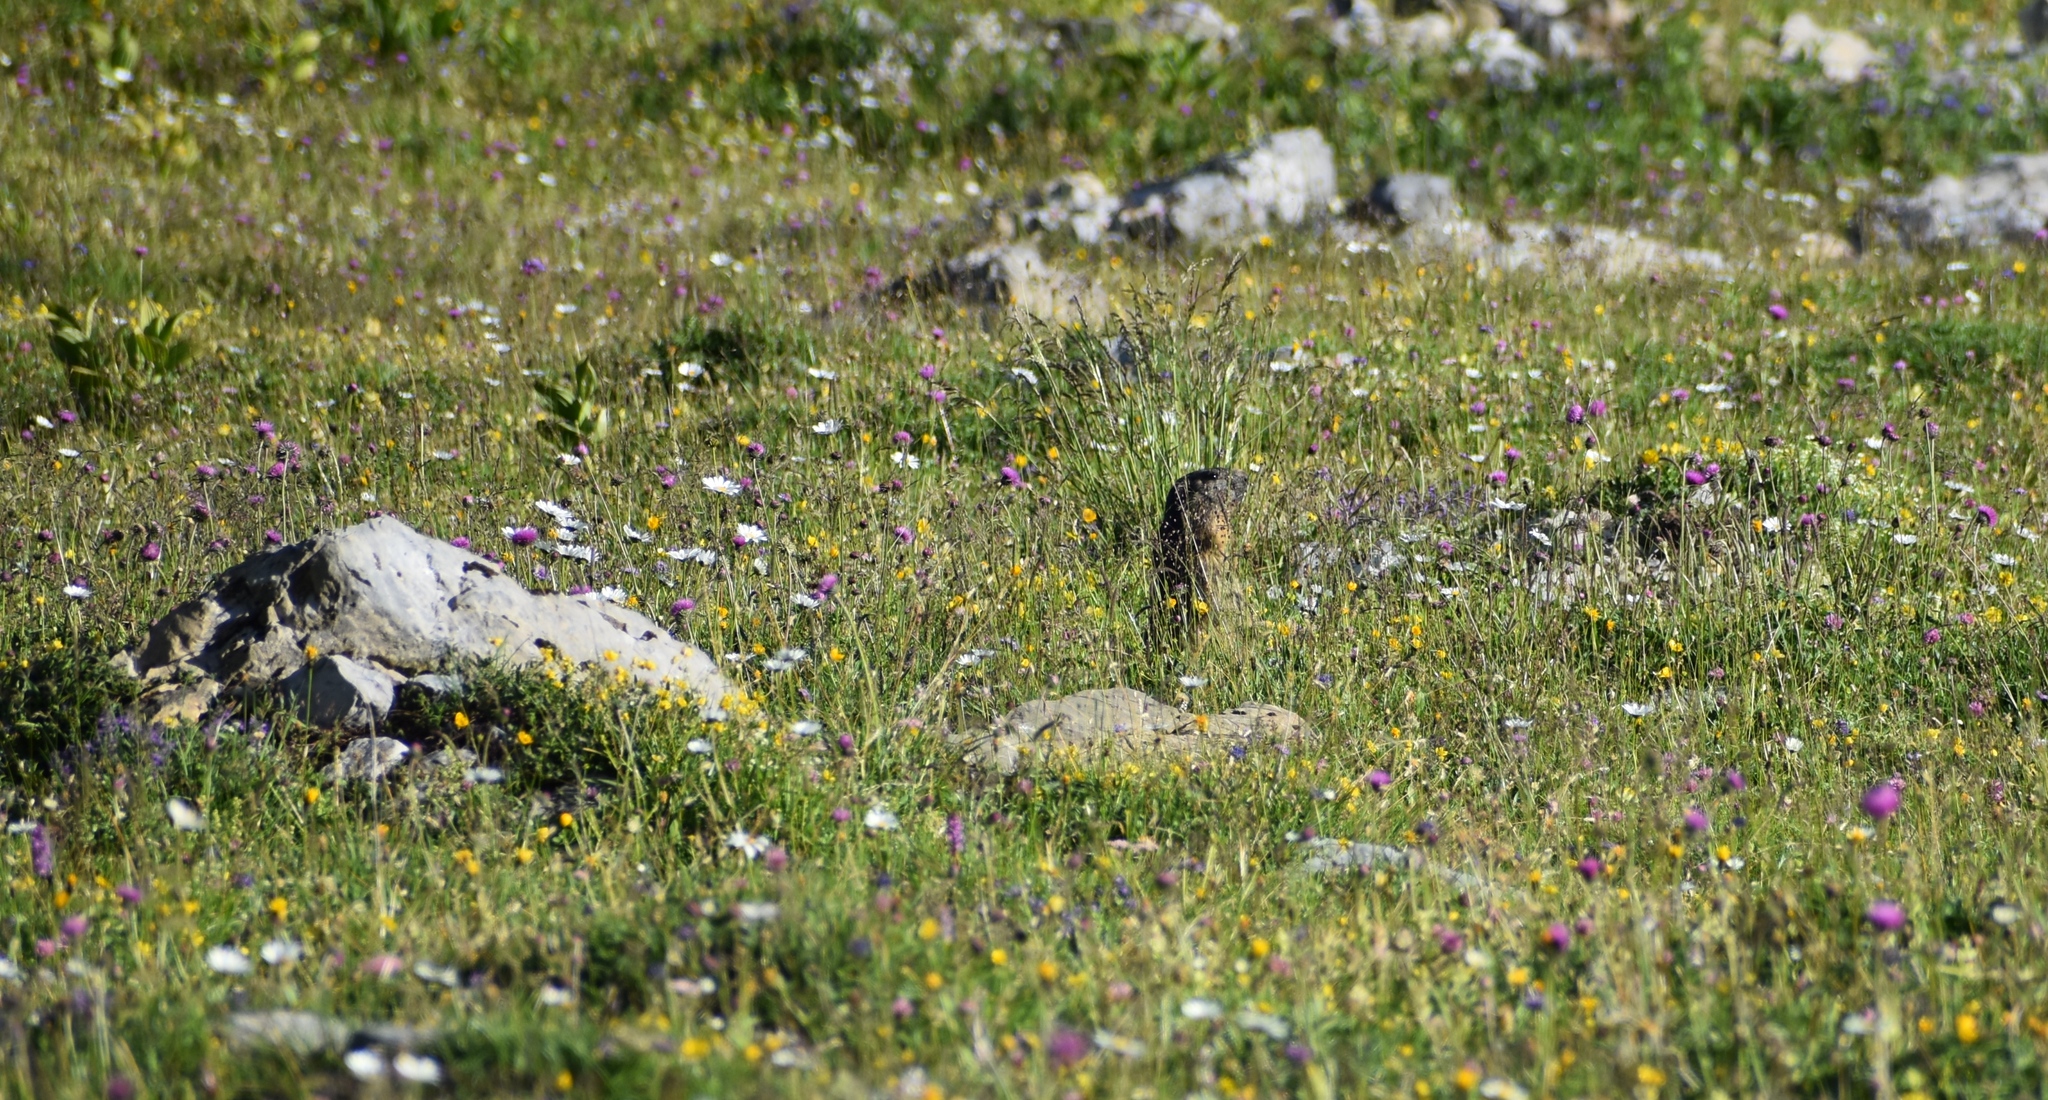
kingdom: Animalia
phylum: Chordata
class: Mammalia
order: Rodentia
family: Sciuridae
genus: Marmota
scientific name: Marmota marmota
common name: Alpine marmot
